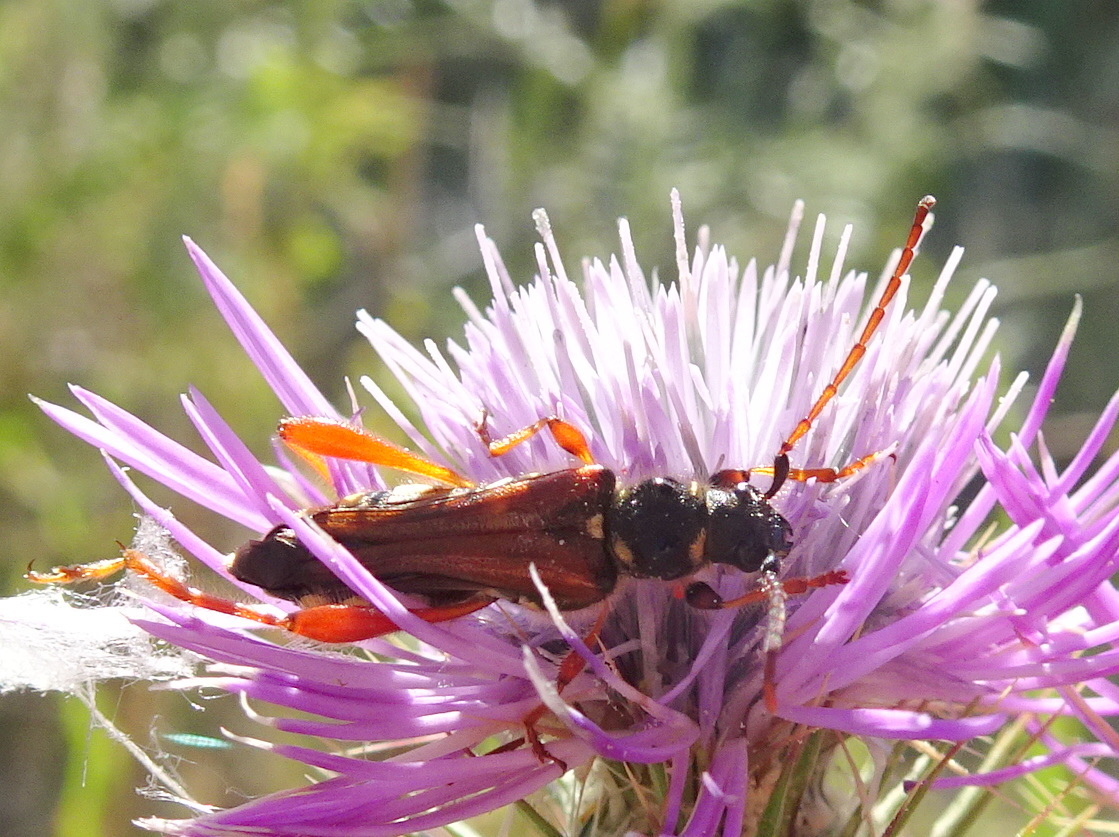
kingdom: Animalia
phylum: Arthropoda
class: Insecta
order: Coleoptera
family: Cerambycidae
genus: Stenopterus
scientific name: Stenopterus rufus
